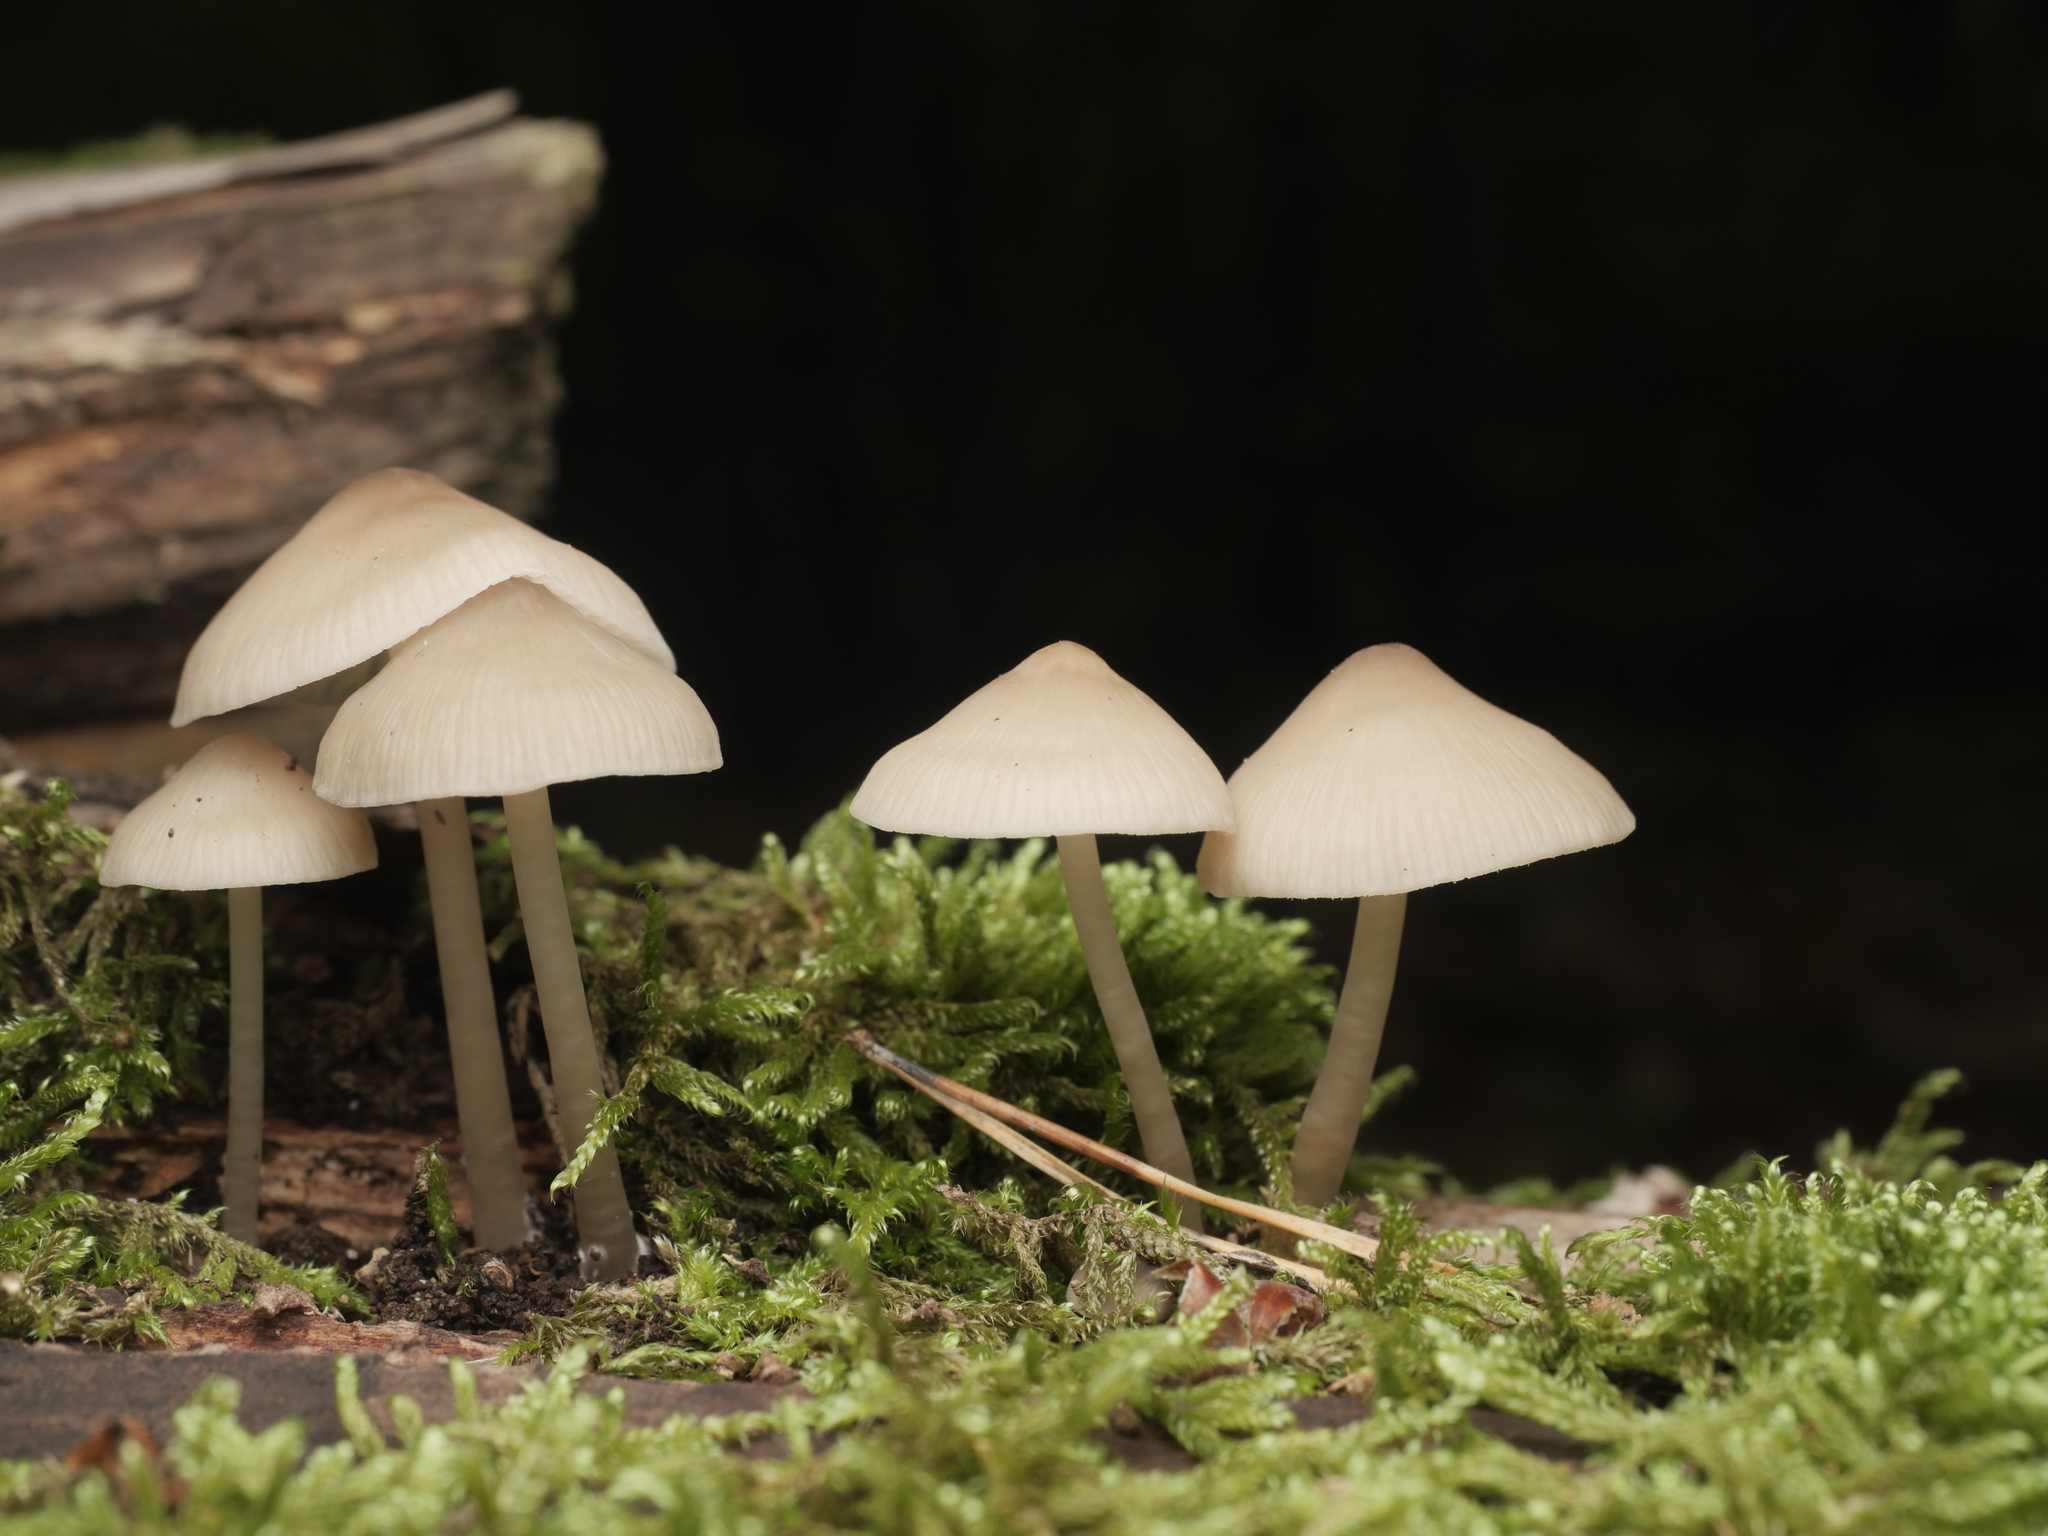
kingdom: Fungi
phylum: Basidiomycota
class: Agaricomycetes
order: Agaricales
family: Mycenaceae
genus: Mycena
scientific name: Mycena galericulata
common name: Bonnet mycena
